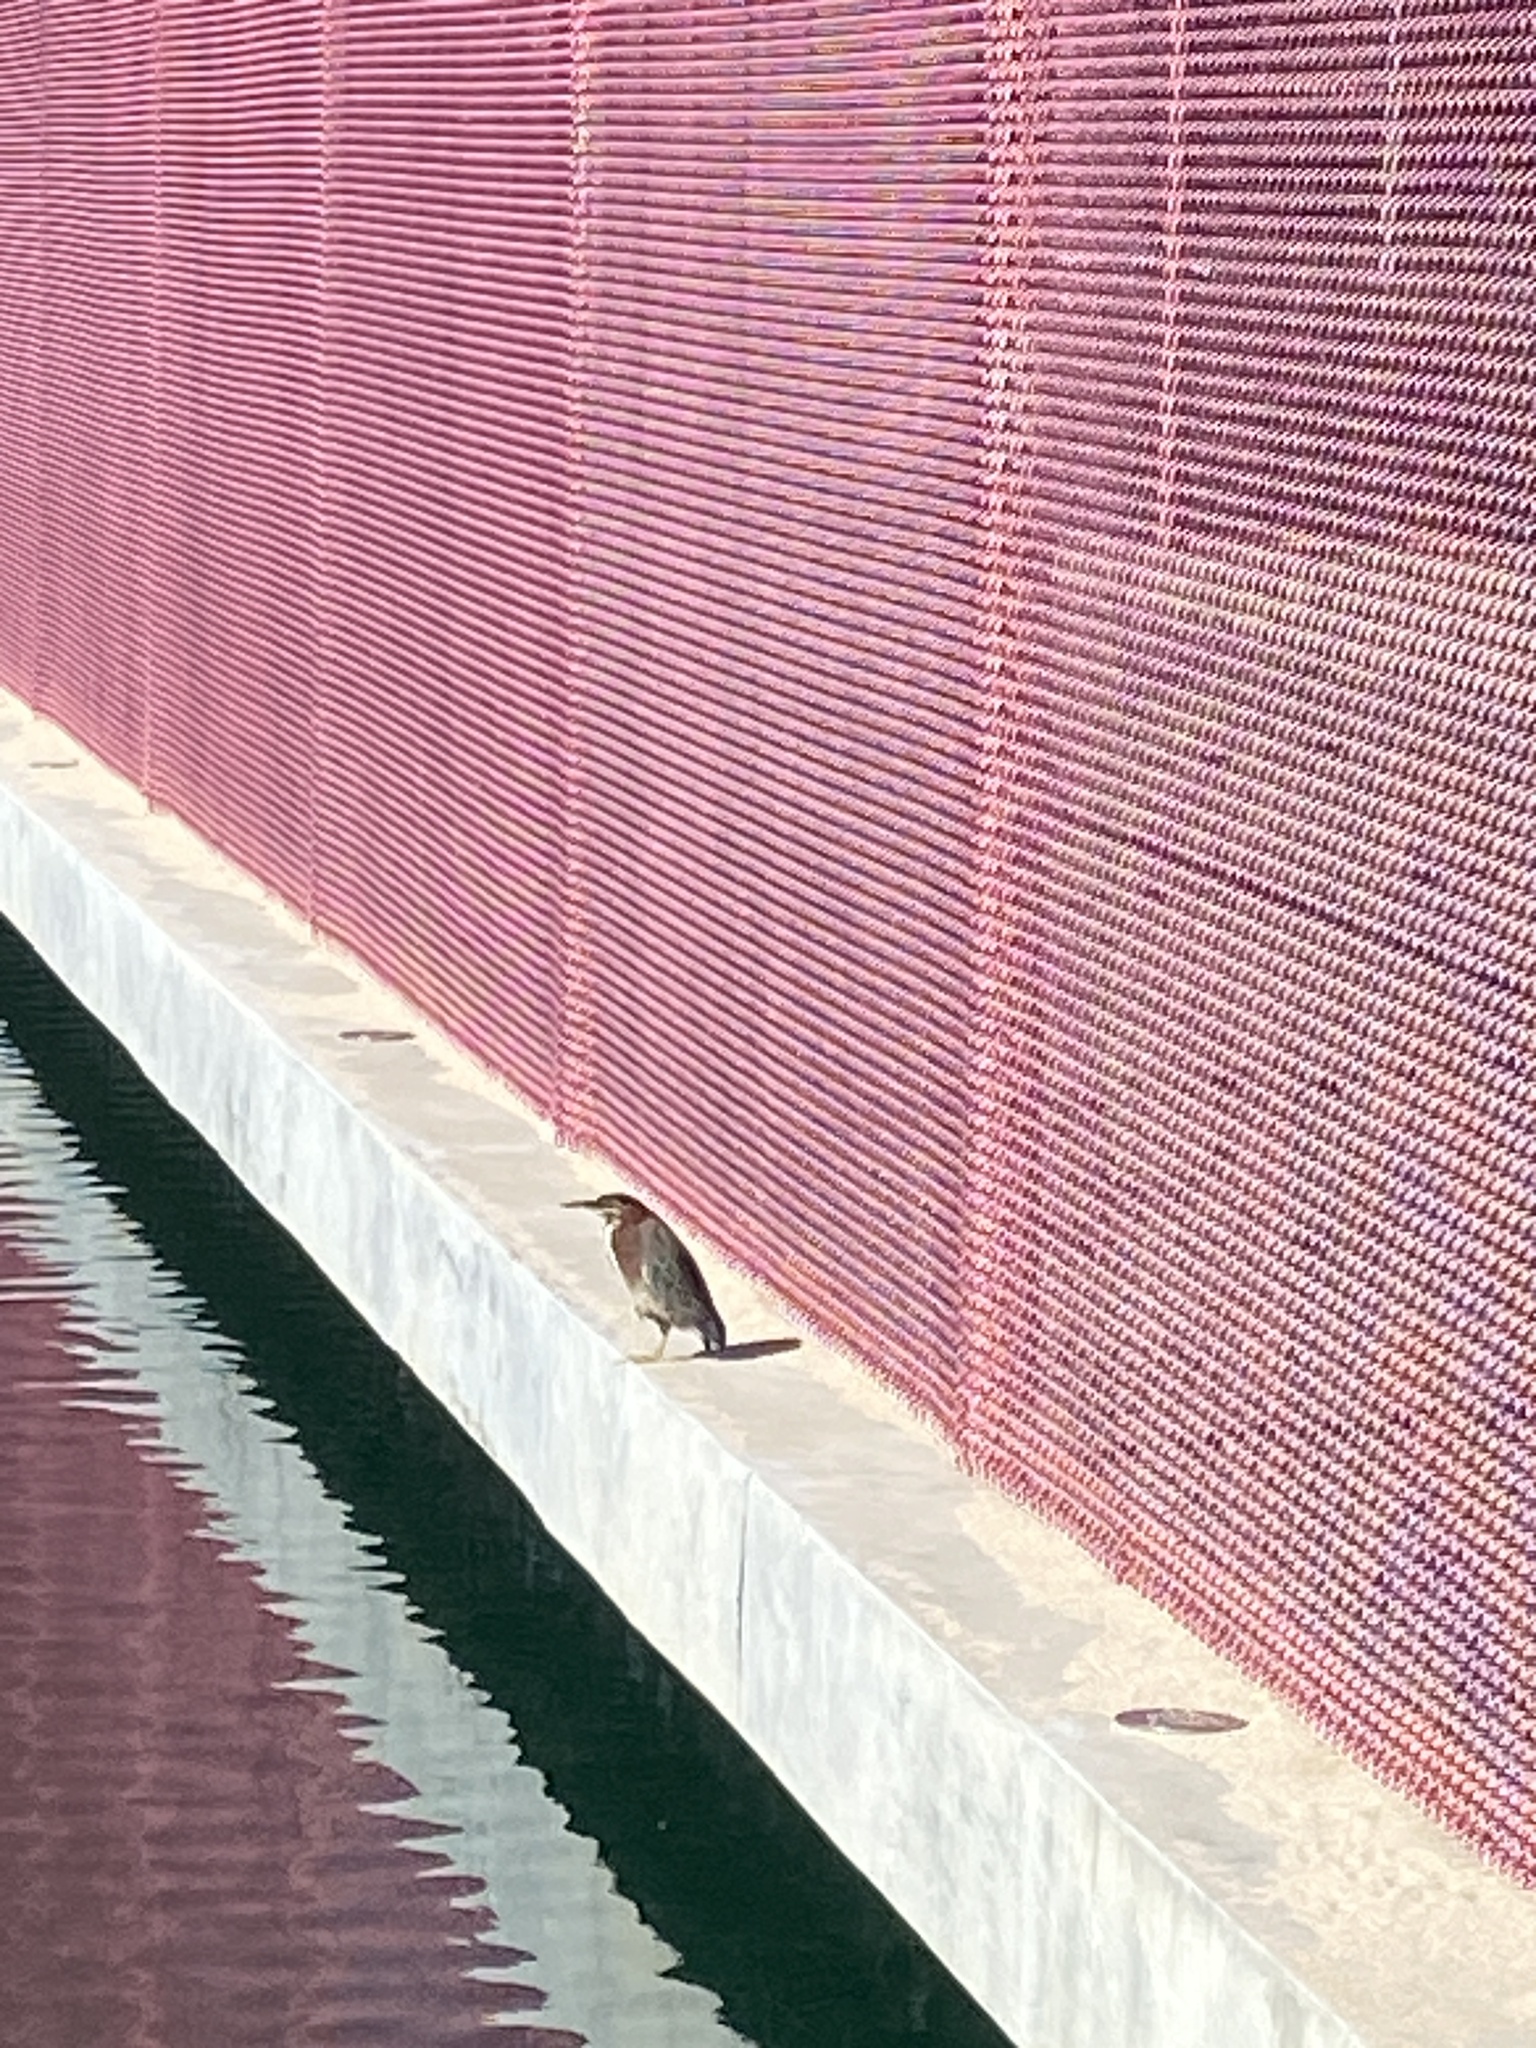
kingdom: Animalia
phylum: Chordata
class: Aves
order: Pelecaniformes
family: Ardeidae
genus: Butorides
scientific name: Butorides virescens
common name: Green heron
